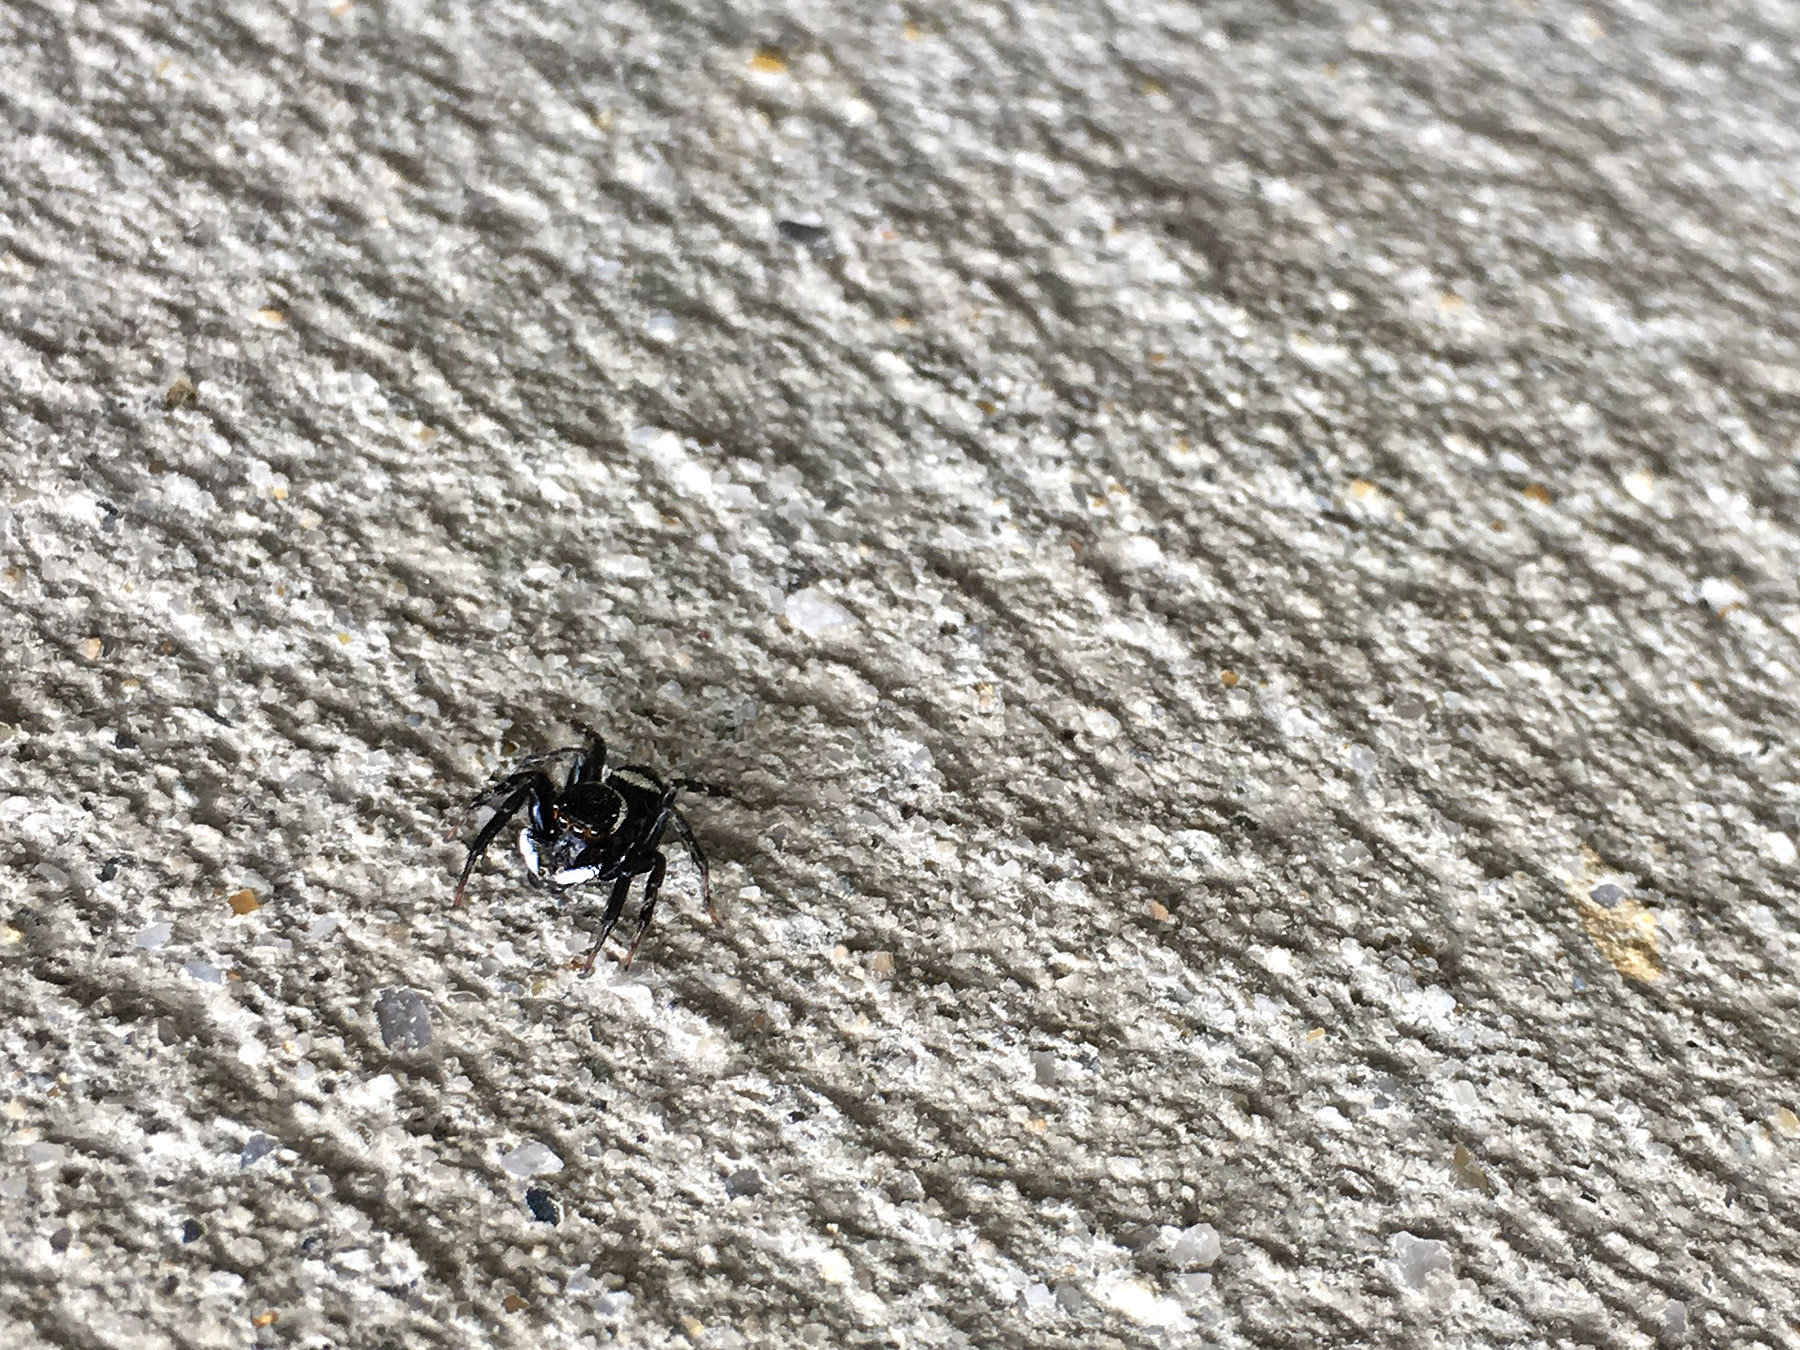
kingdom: Animalia
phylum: Arthropoda
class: Arachnida
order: Araneae
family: Salticidae
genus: Hasarius
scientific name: Hasarius adansoni
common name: Jumping spider
